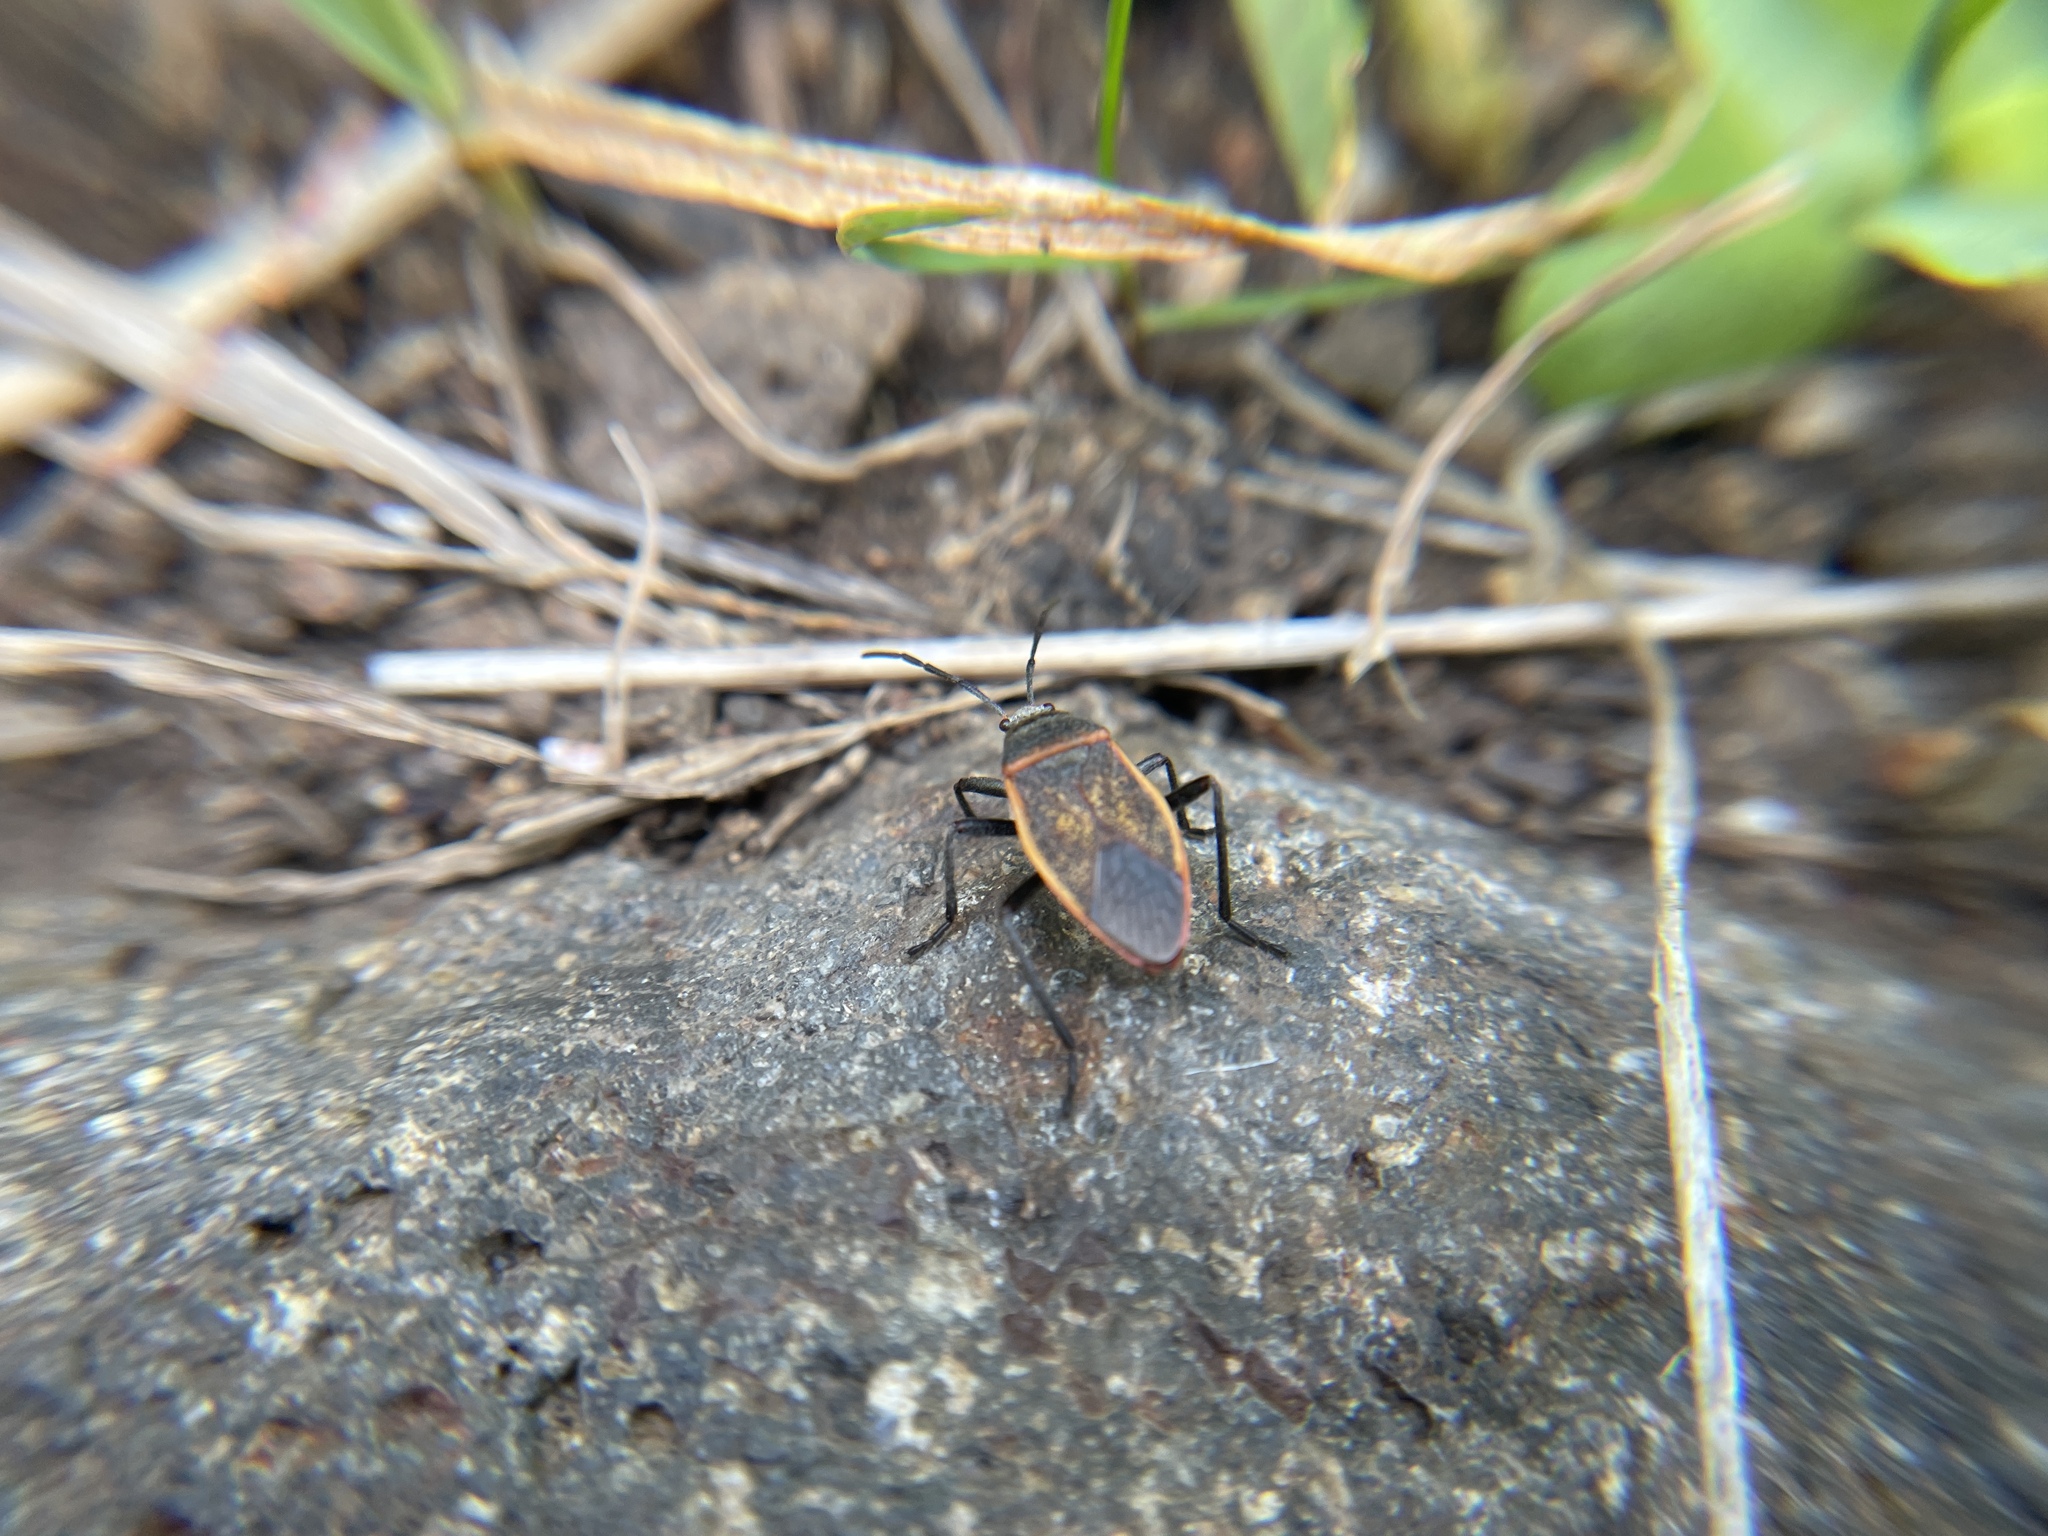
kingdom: Animalia
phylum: Arthropoda
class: Insecta
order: Hemiptera
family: Largidae
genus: Largus
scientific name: Largus californicus
